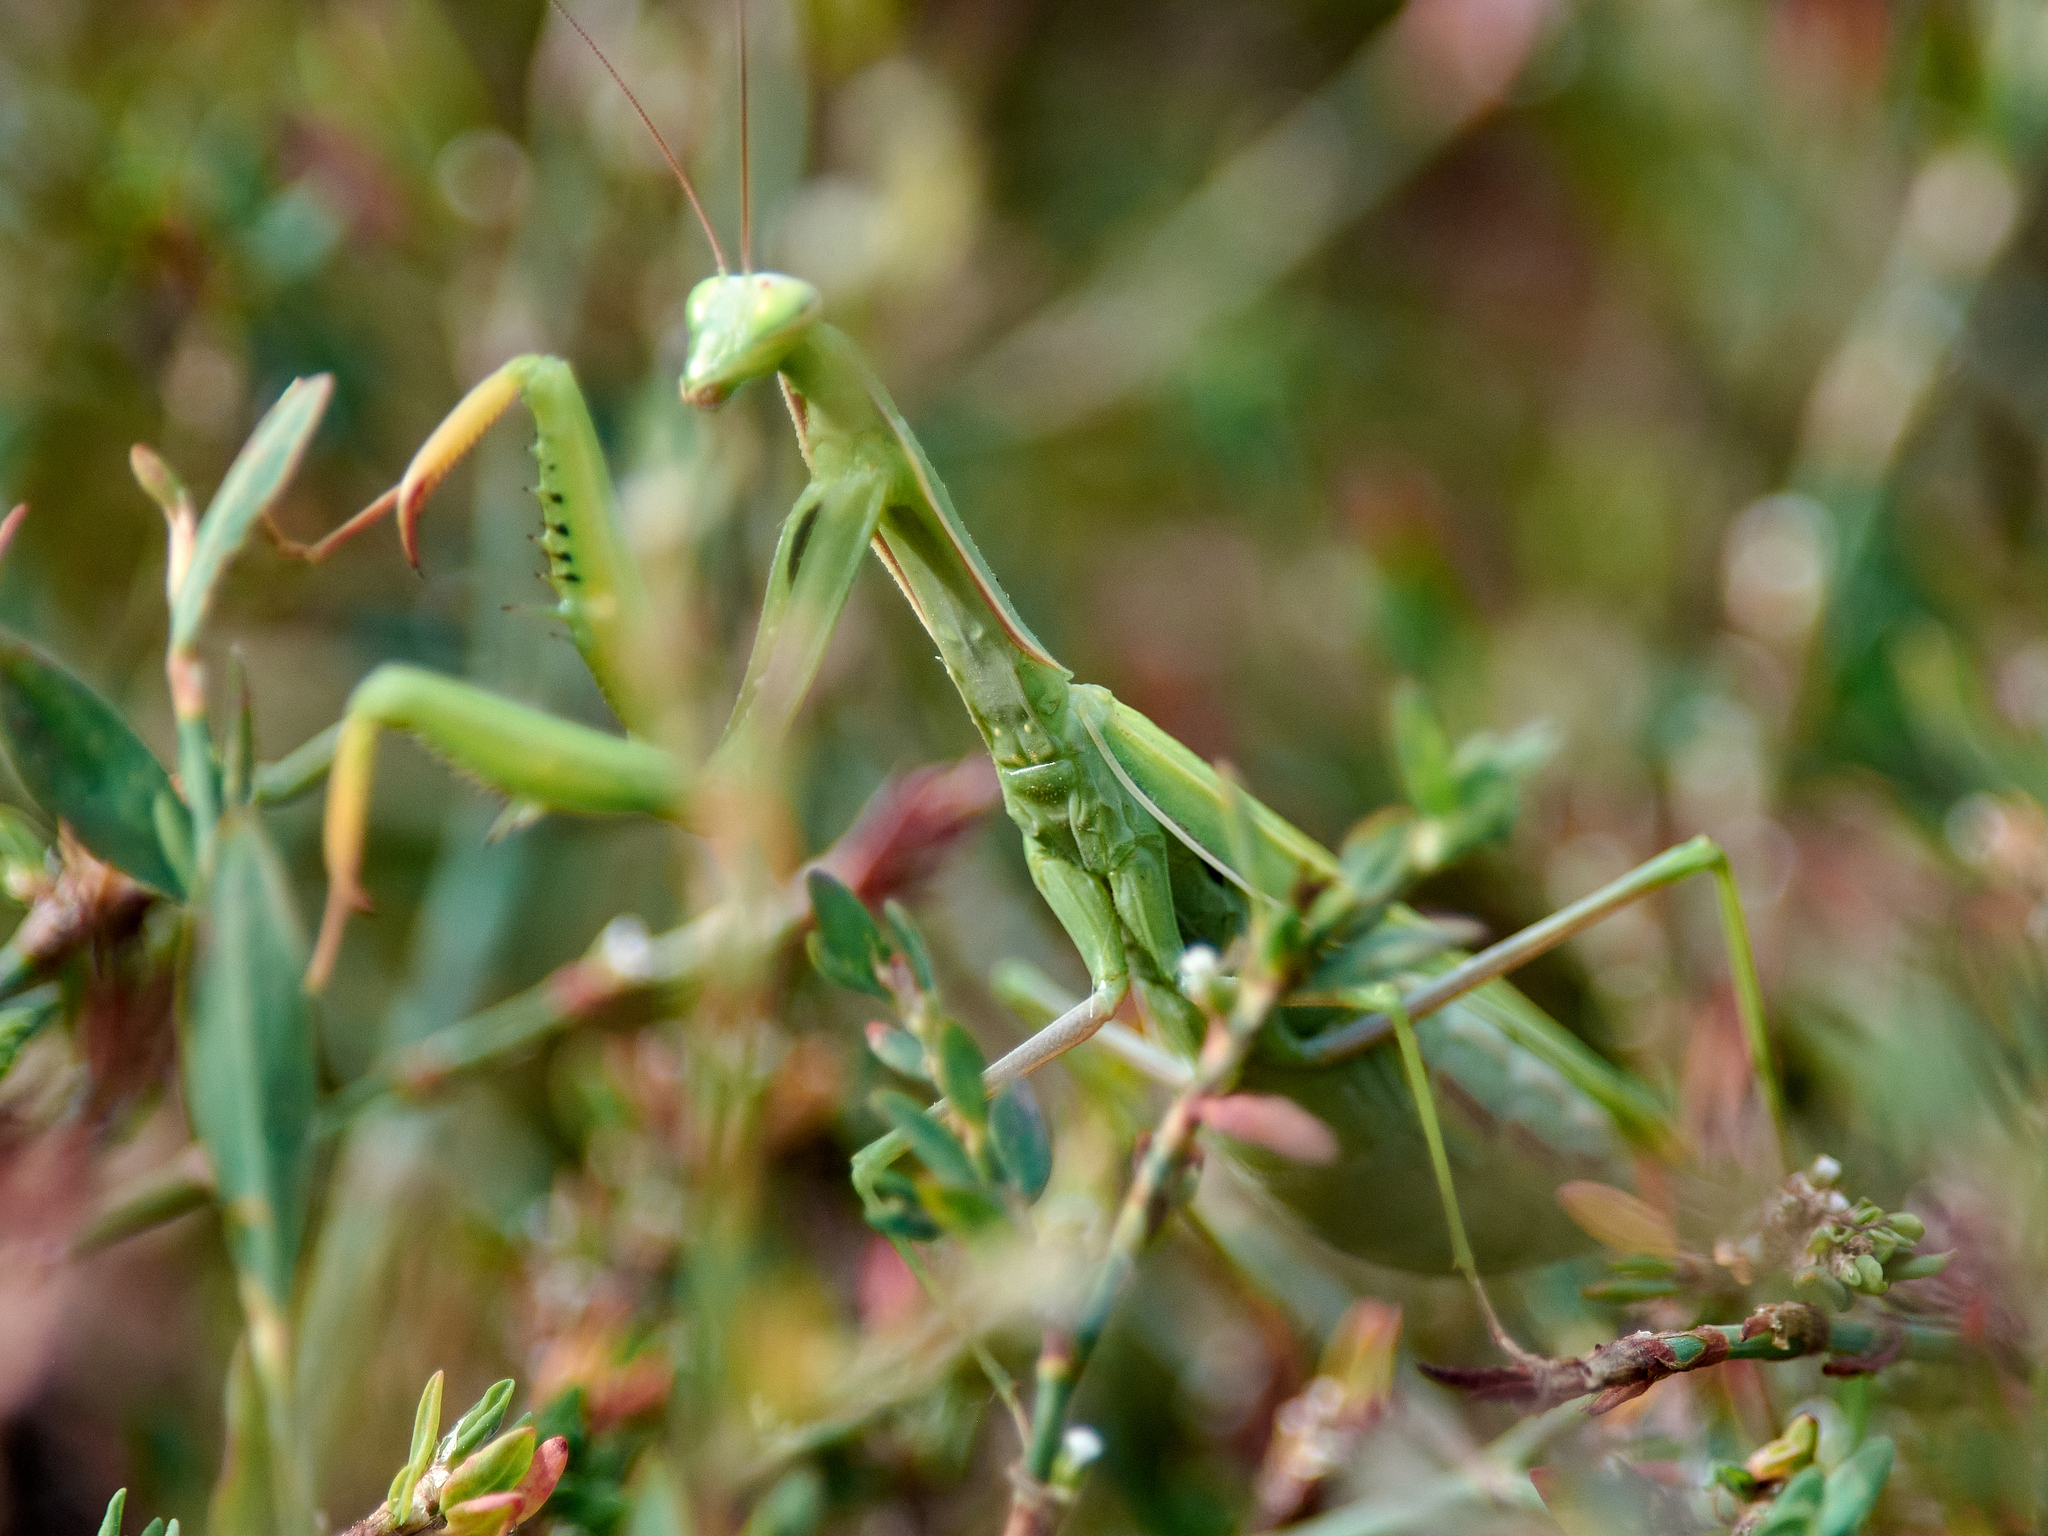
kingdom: Animalia
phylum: Arthropoda
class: Insecta
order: Mantodea
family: Mantidae
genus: Mantis
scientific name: Mantis religiosa
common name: Praying mantis
